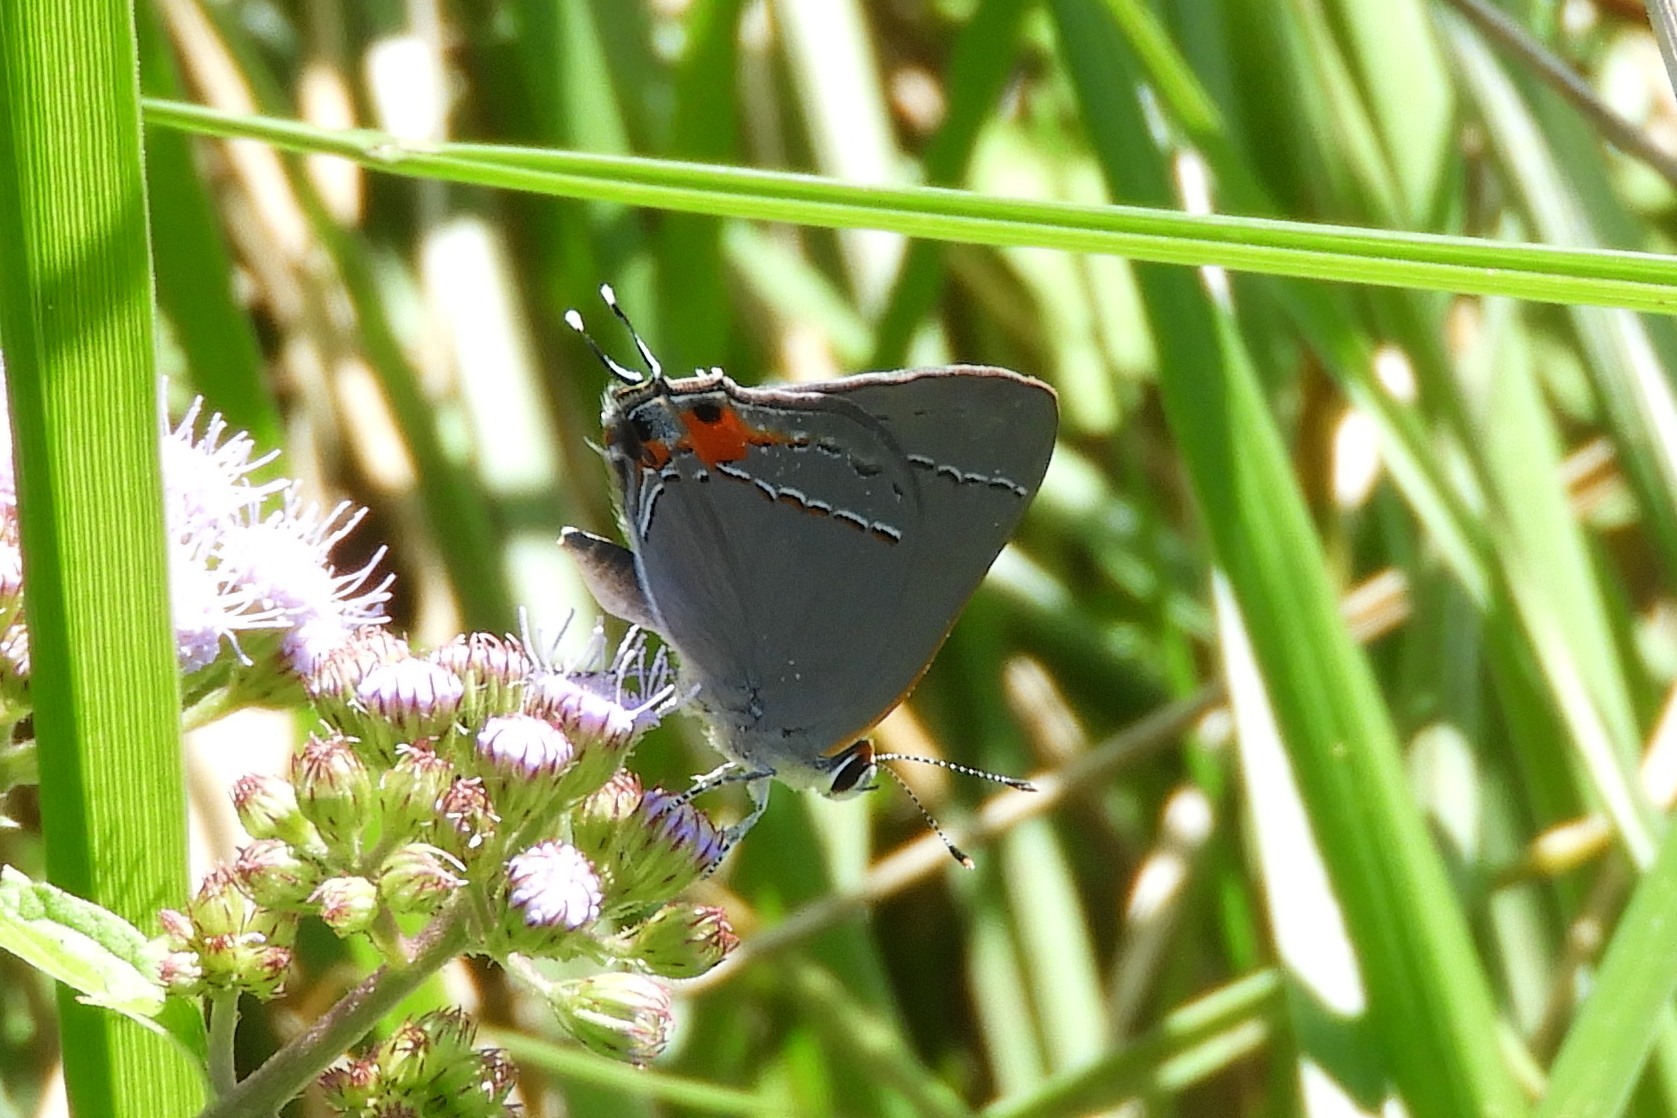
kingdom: Animalia
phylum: Arthropoda
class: Insecta
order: Lepidoptera
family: Lycaenidae
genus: Strymon
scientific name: Strymon melinus
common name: Gray hairstreak
